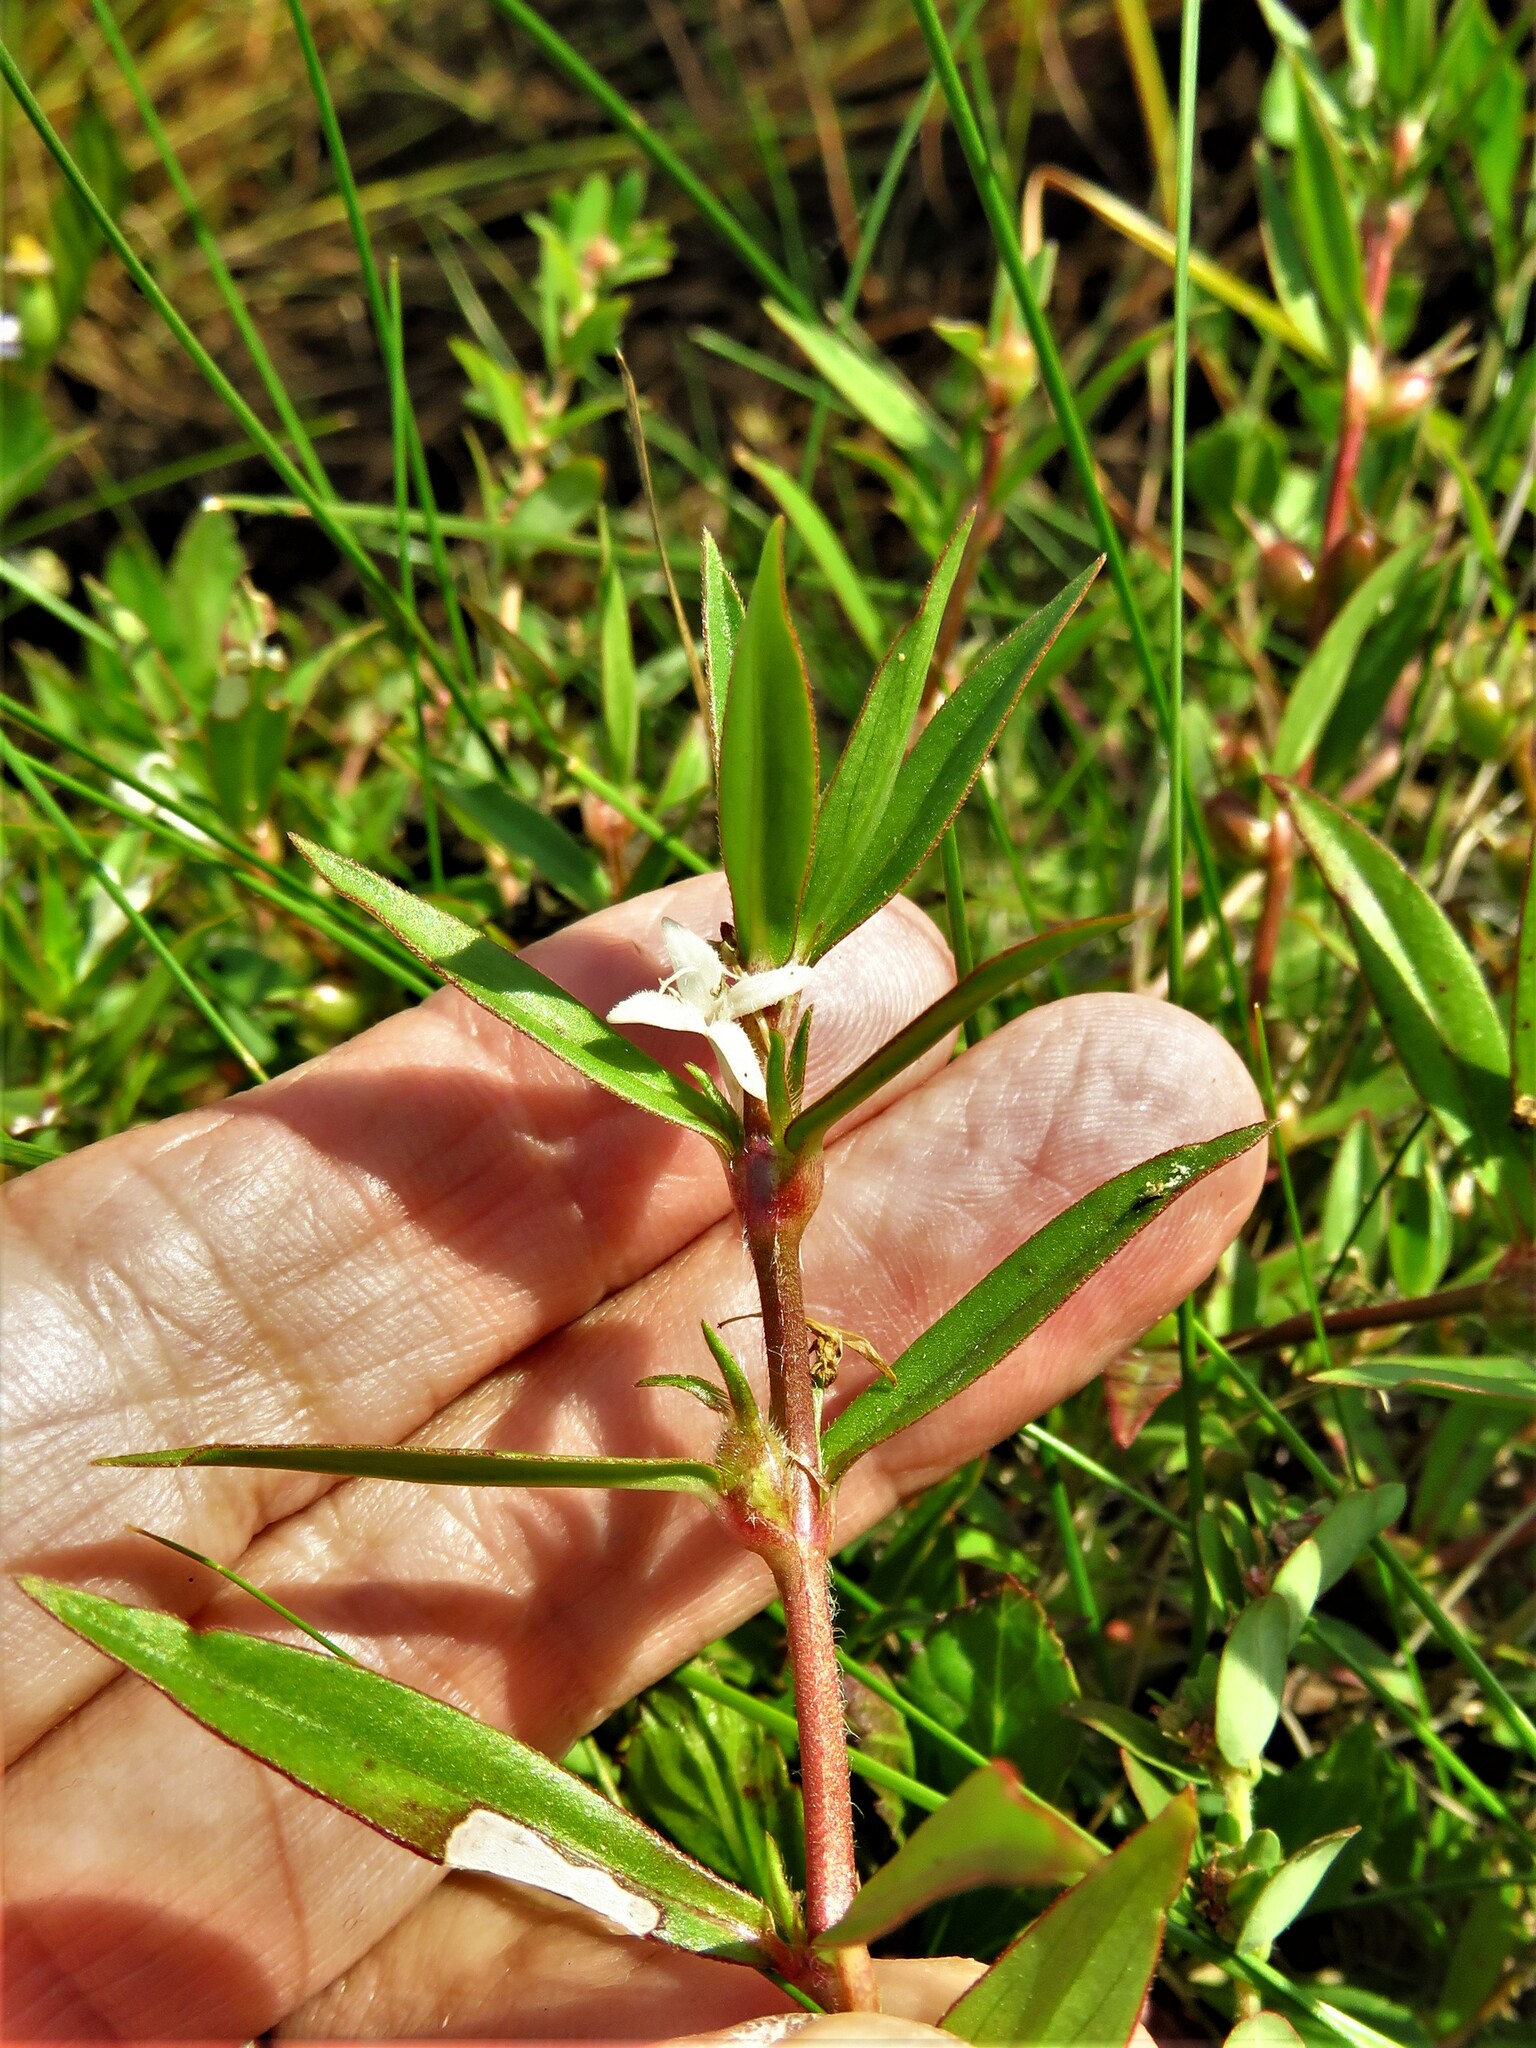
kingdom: Plantae
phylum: Tracheophyta
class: Magnoliopsida
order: Gentianales
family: Rubiaceae
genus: Diodia
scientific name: Diodia virginiana
